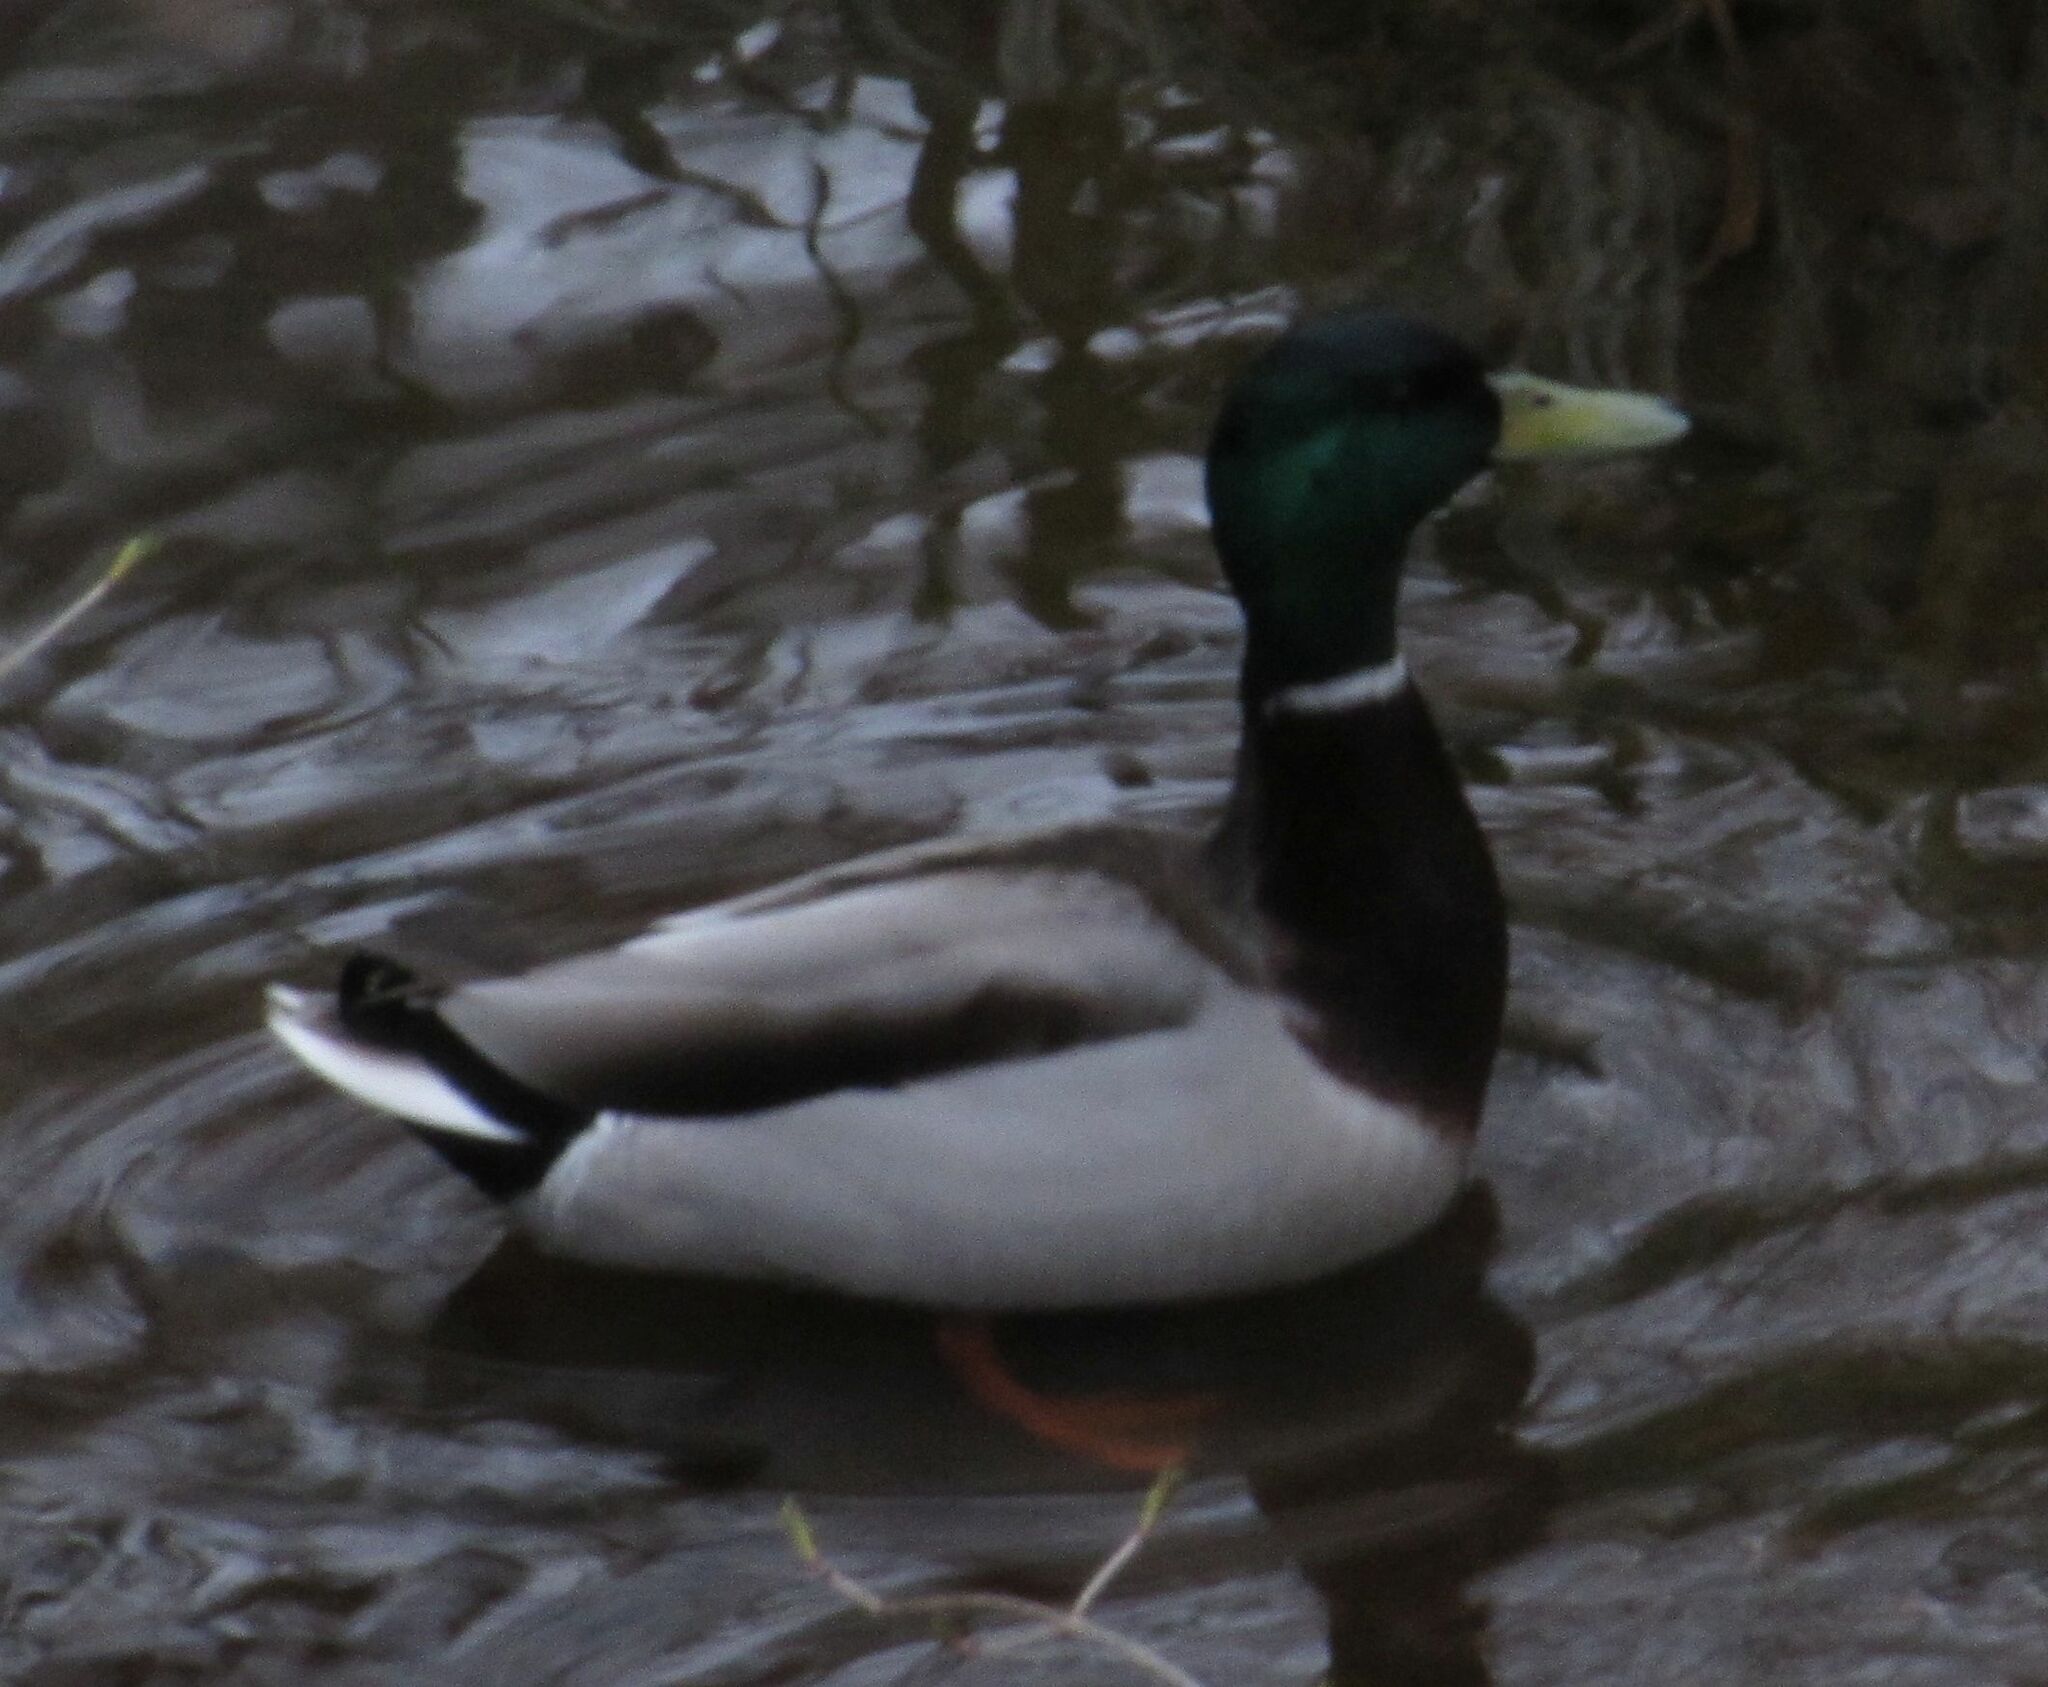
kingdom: Animalia
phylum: Chordata
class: Aves
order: Anseriformes
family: Anatidae
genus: Anas
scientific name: Anas platyrhynchos
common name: Mallard
